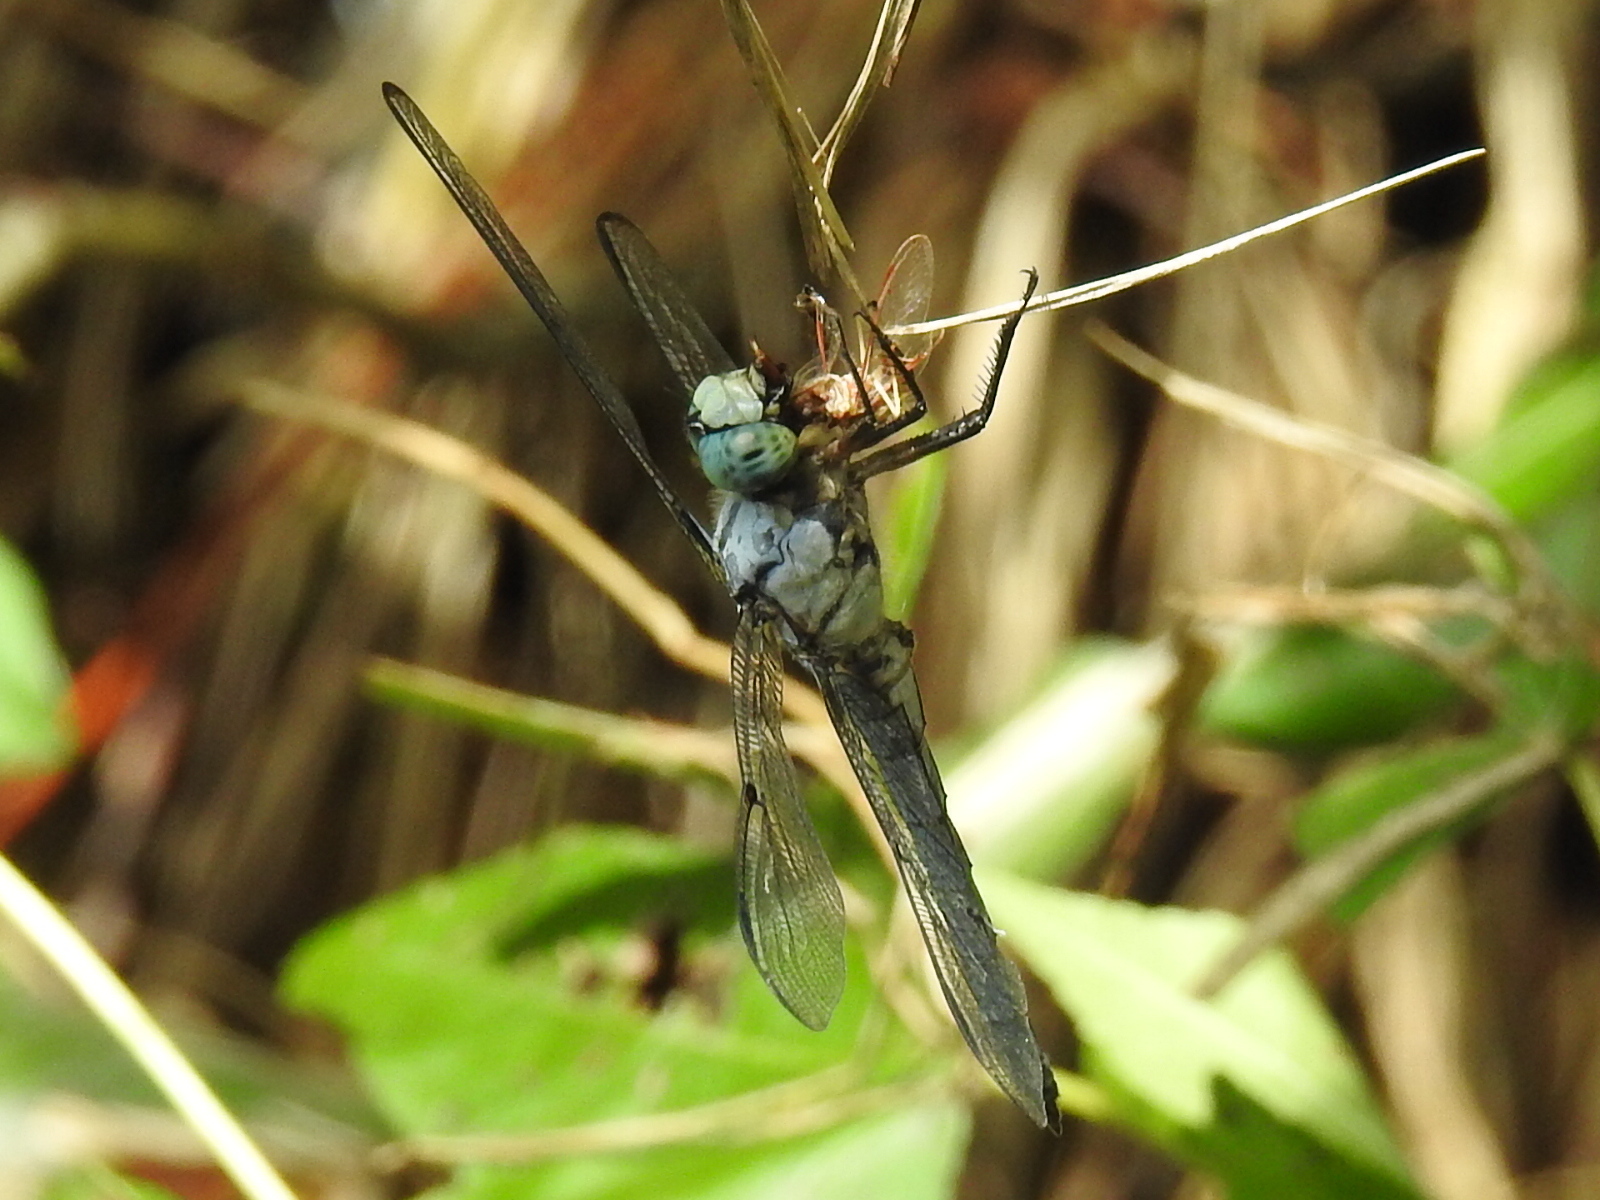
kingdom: Animalia
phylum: Arthropoda
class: Insecta
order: Odonata
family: Libellulidae
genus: Libellula
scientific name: Libellula vibrans
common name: Great blue skimmer
